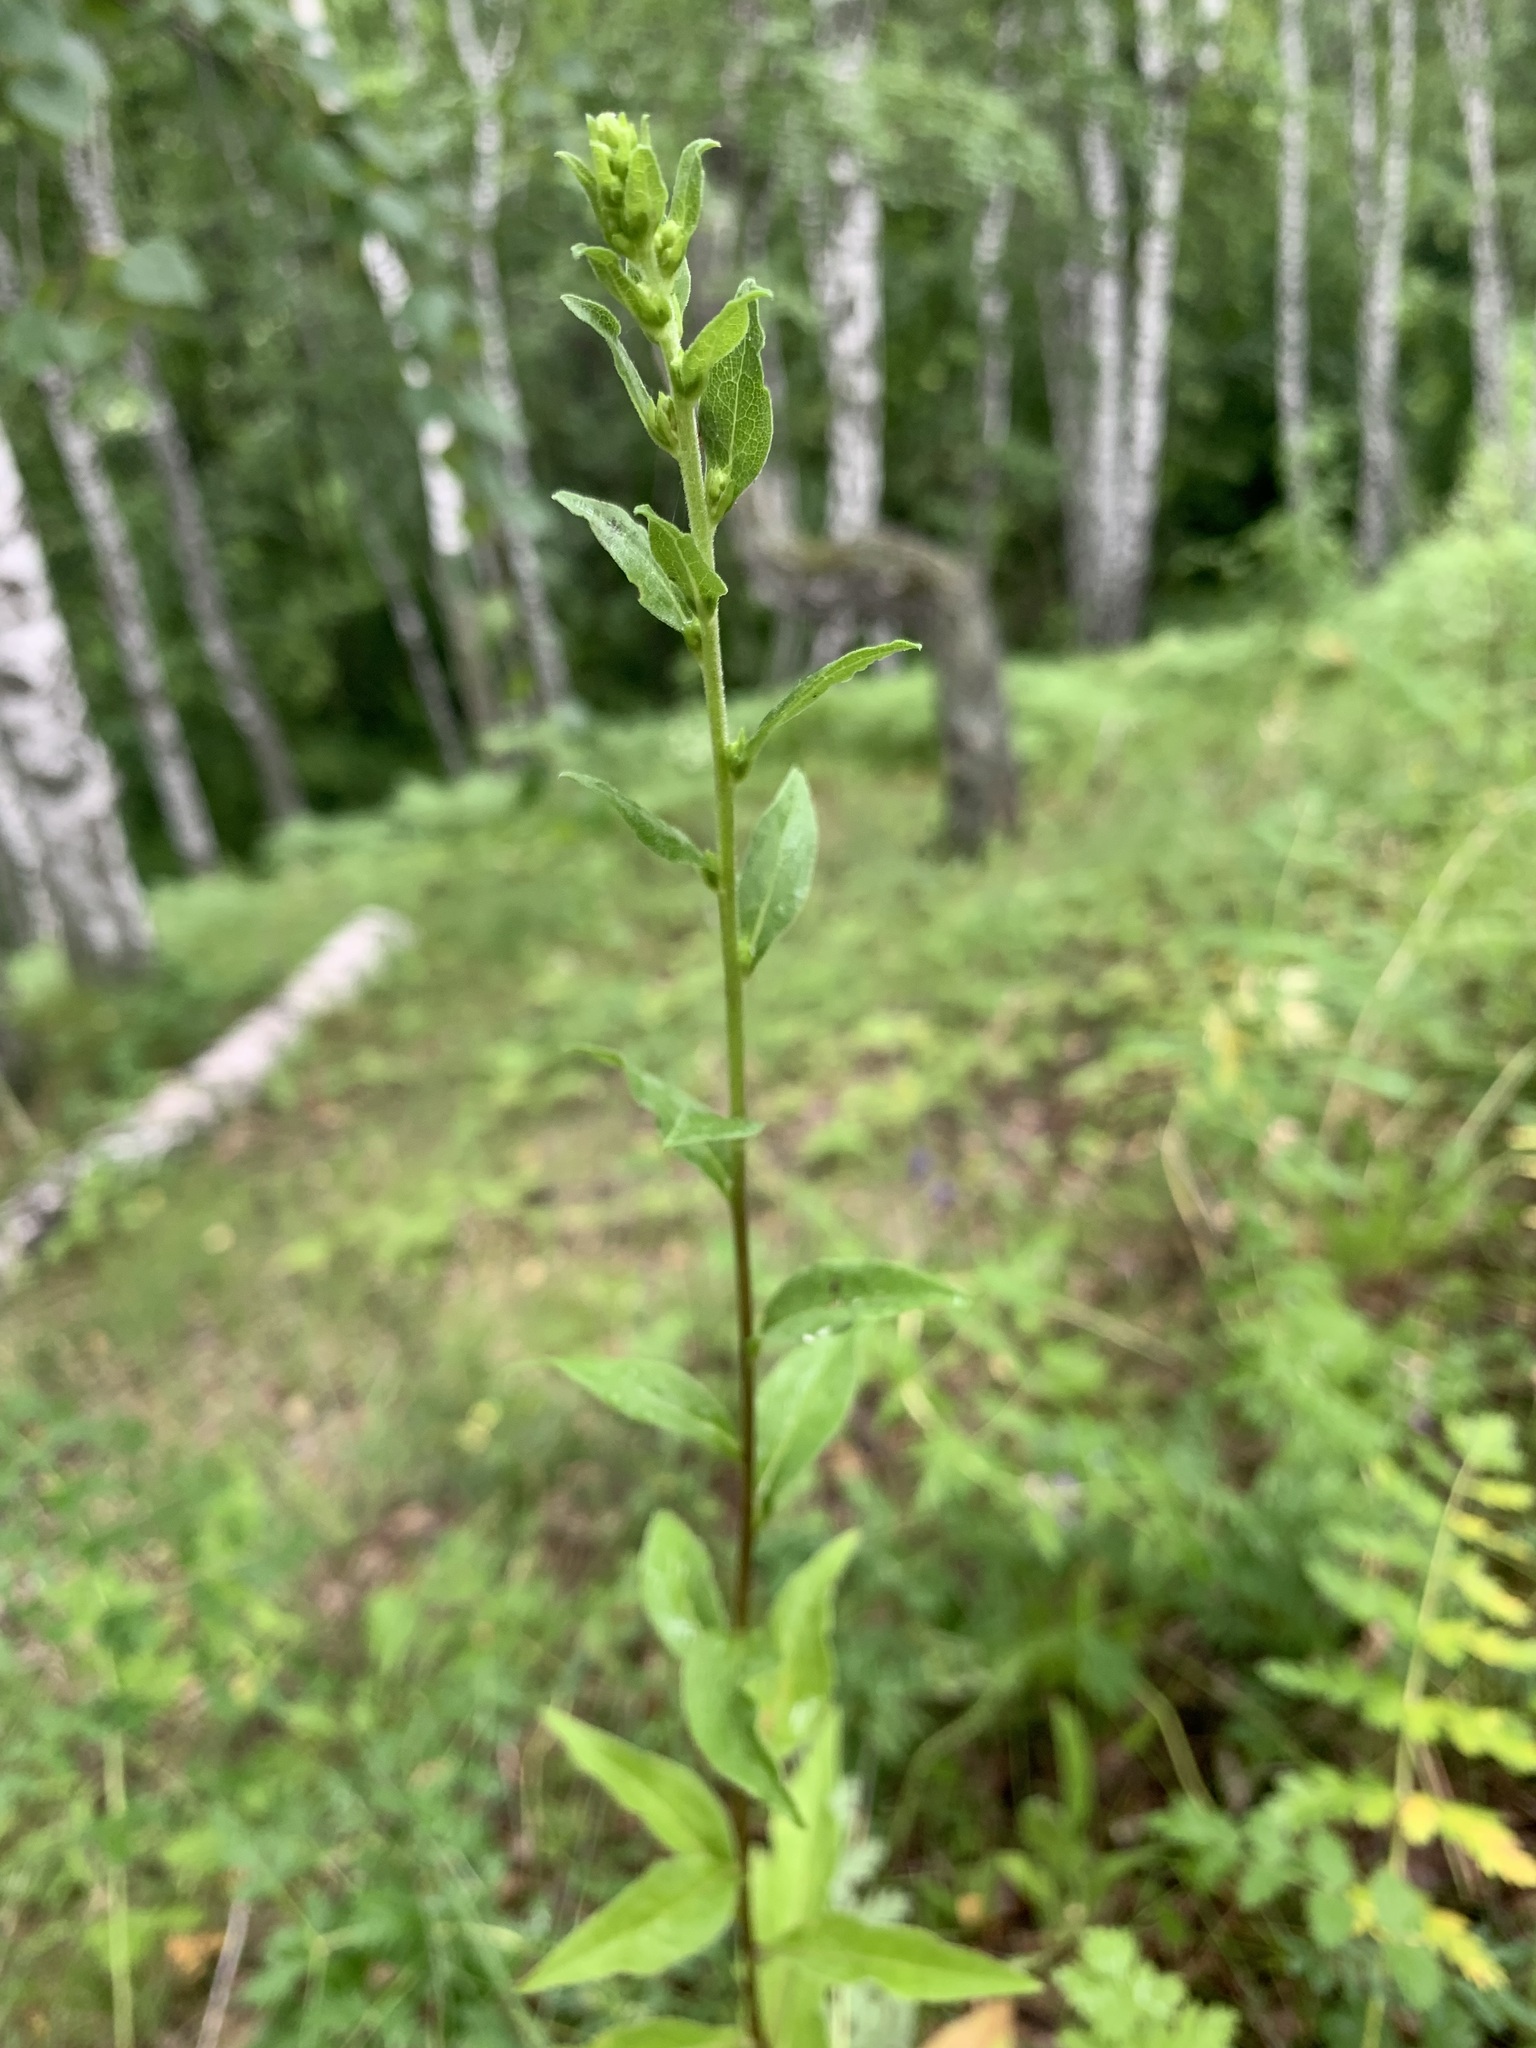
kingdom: Plantae
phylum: Tracheophyta
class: Magnoliopsida
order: Asterales
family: Asteraceae
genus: Solidago
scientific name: Solidago virgaurea
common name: Goldenrod
